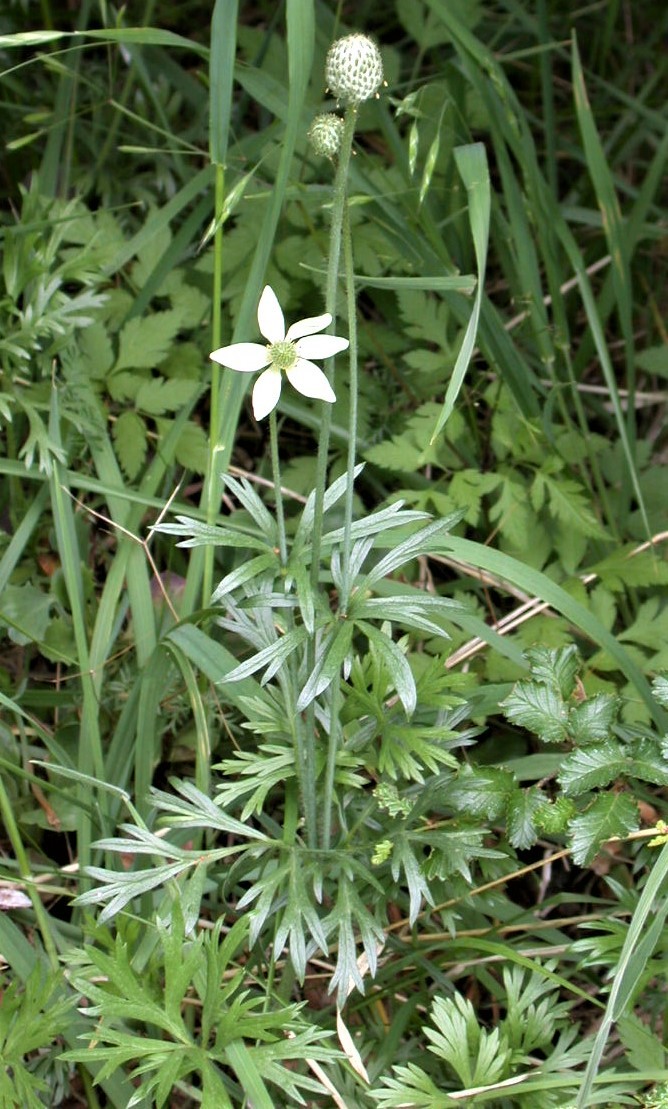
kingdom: Plantae
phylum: Tracheophyta
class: Magnoliopsida
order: Ranunculales
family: Ranunculaceae
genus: Anemone
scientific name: Anemone multifida
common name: Bird's-foot anemone
